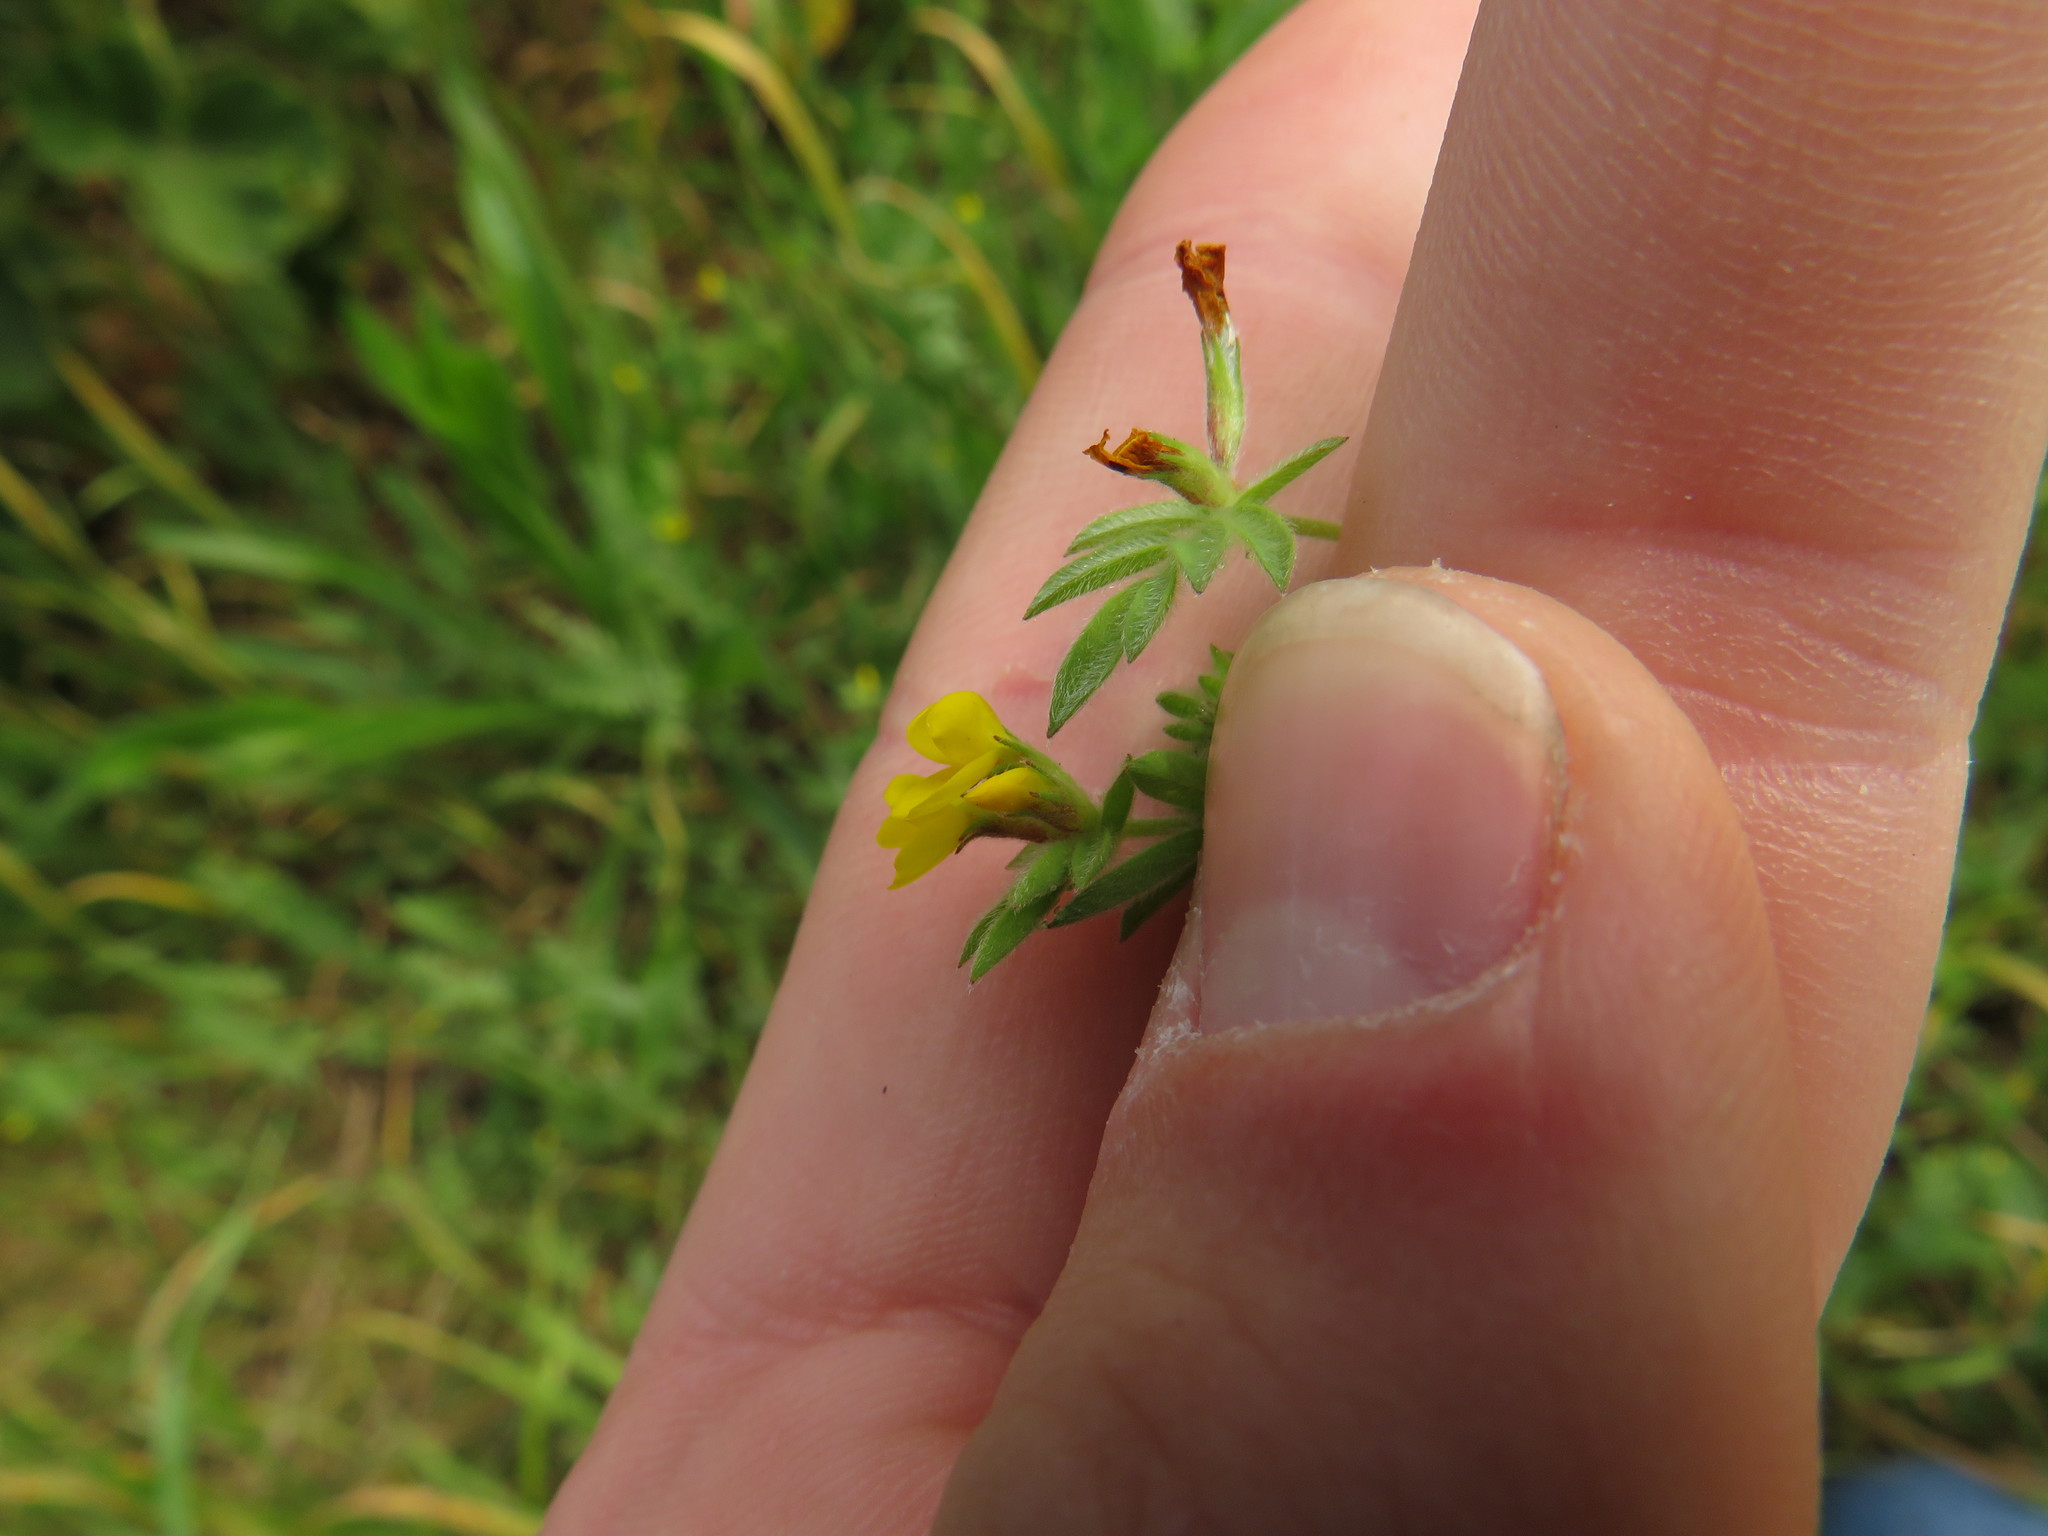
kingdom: Plantae
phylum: Tracheophyta
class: Magnoliopsida
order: Fabales
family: Fabaceae
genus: Ornithopus
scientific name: Ornithopus compressus
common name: Yellow serradella
